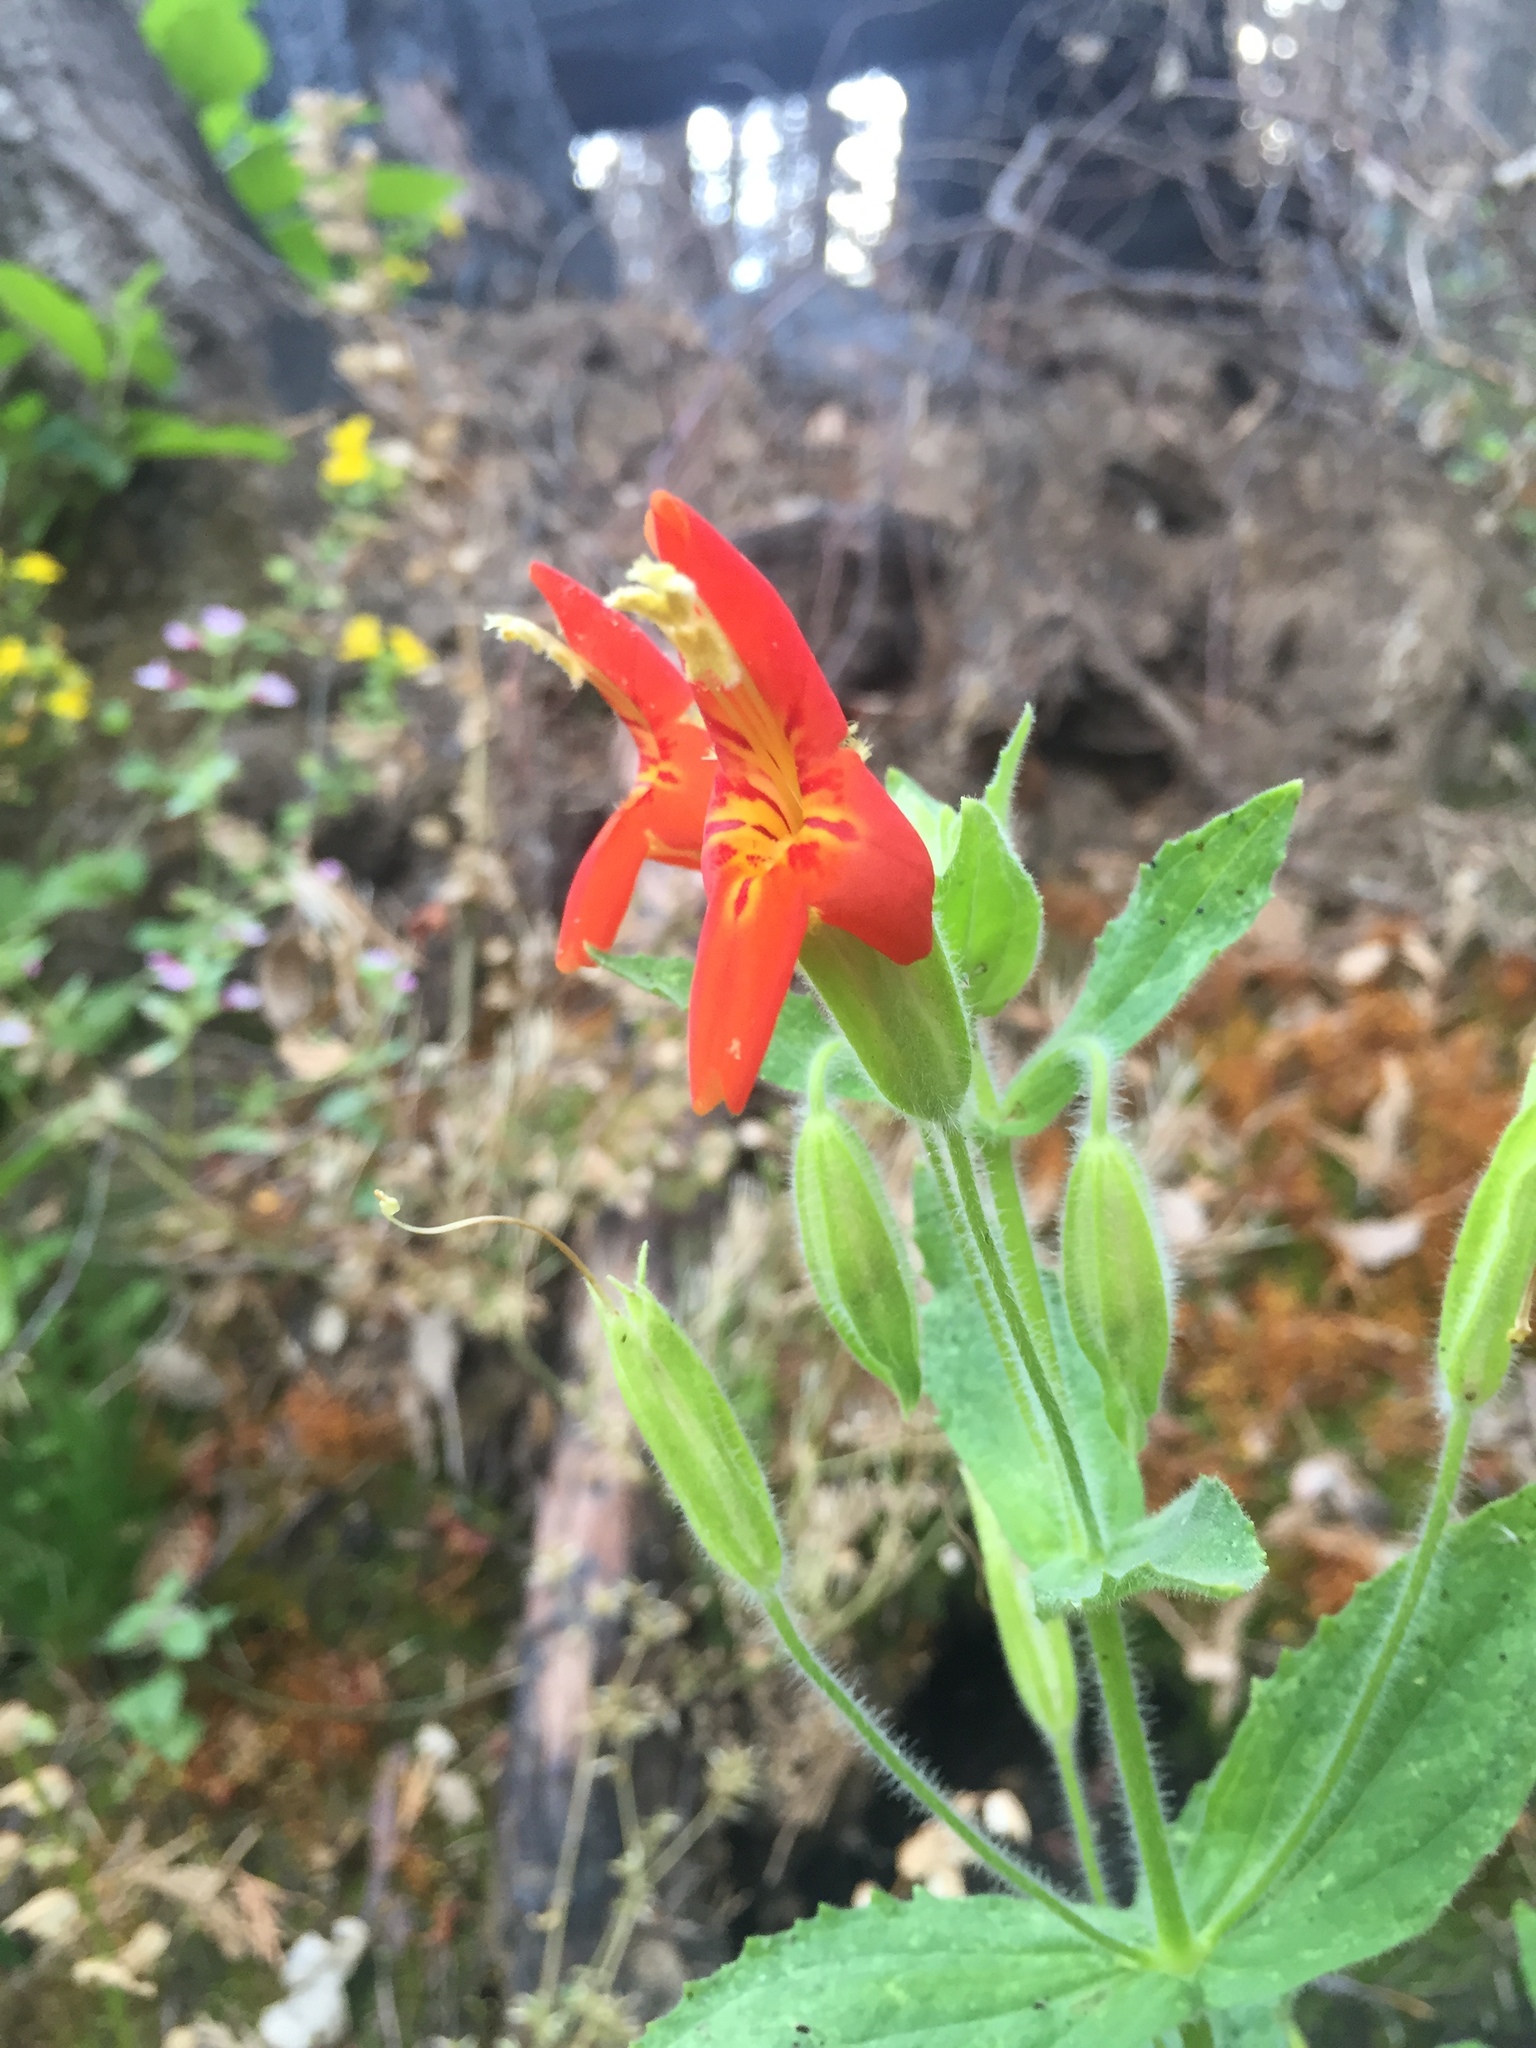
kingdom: Plantae
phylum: Tracheophyta
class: Magnoliopsida
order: Lamiales
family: Phrymaceae
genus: Erythranthe
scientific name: Erythranthe cardinalis
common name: Scarlet monkey-flower
